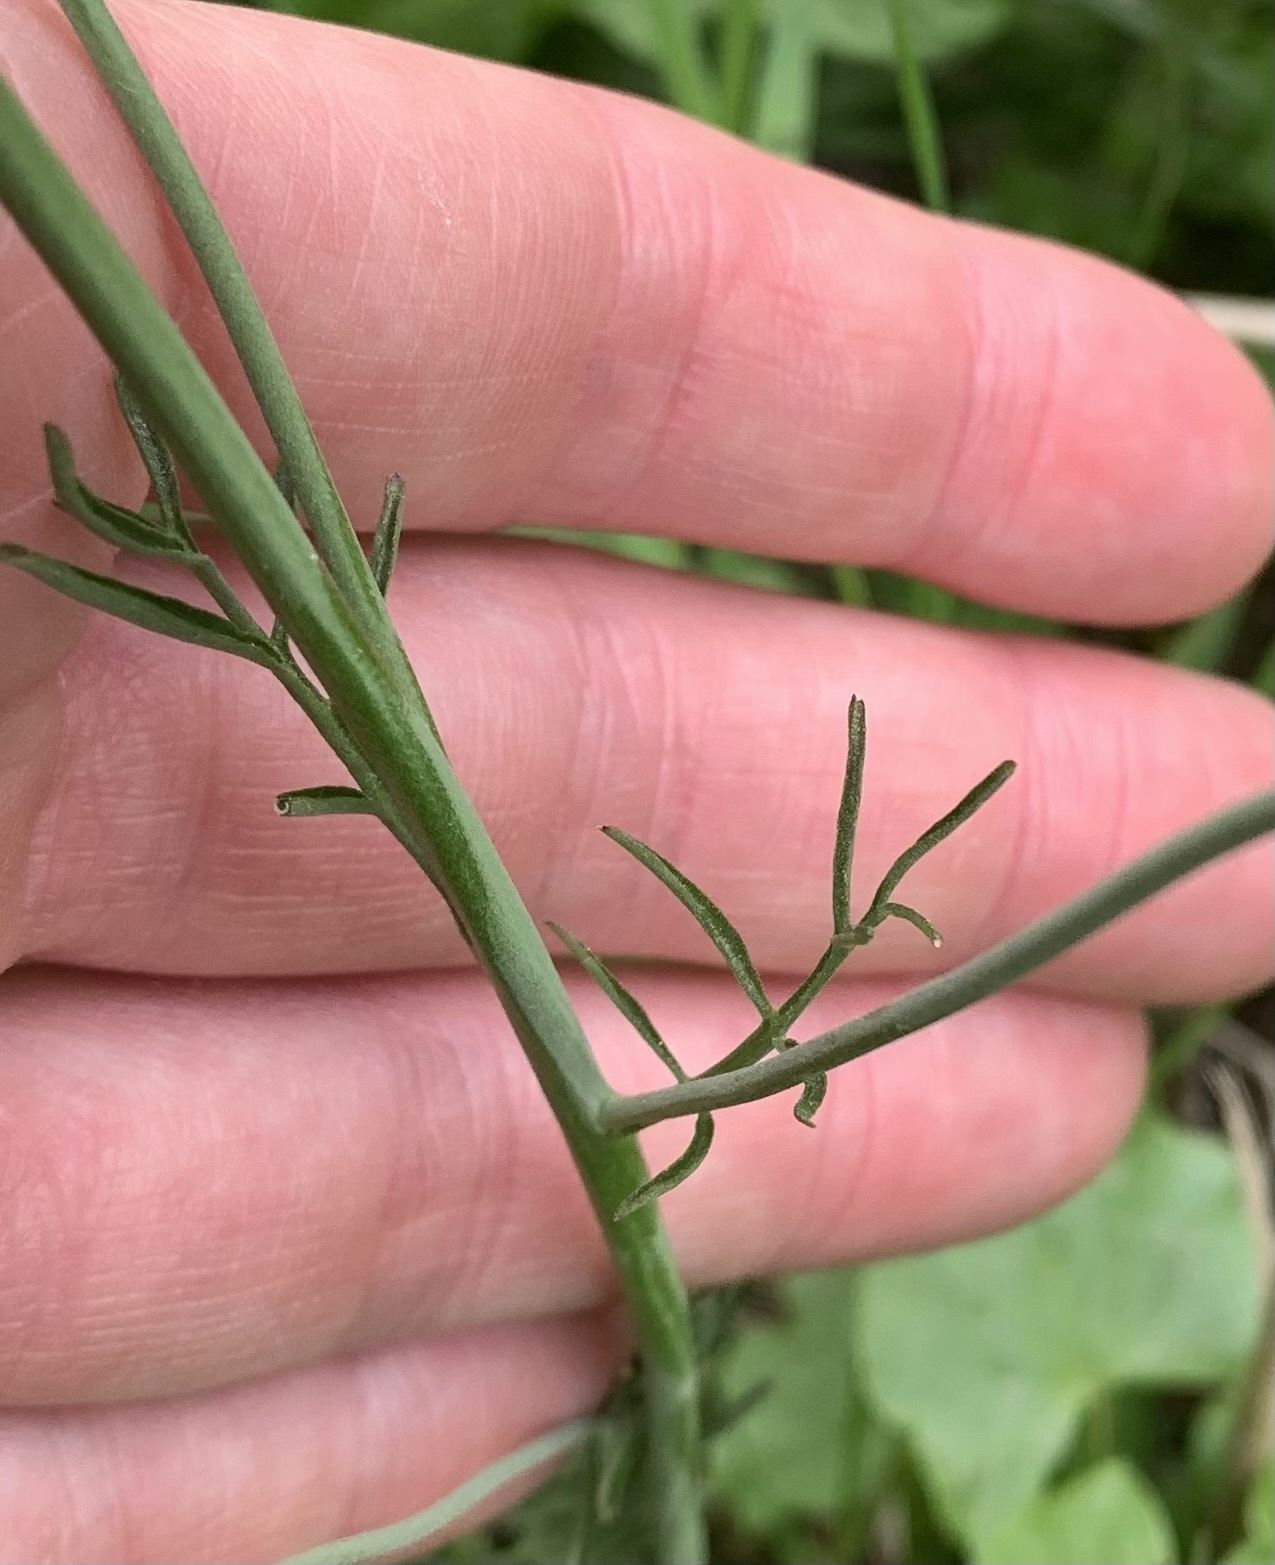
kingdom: Plantae
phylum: Tracheophyta
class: Magnoliopsida
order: Brassicales
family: Brassicaceae
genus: Cardamine
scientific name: Cardamine pratensis
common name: Cuckoo flower
